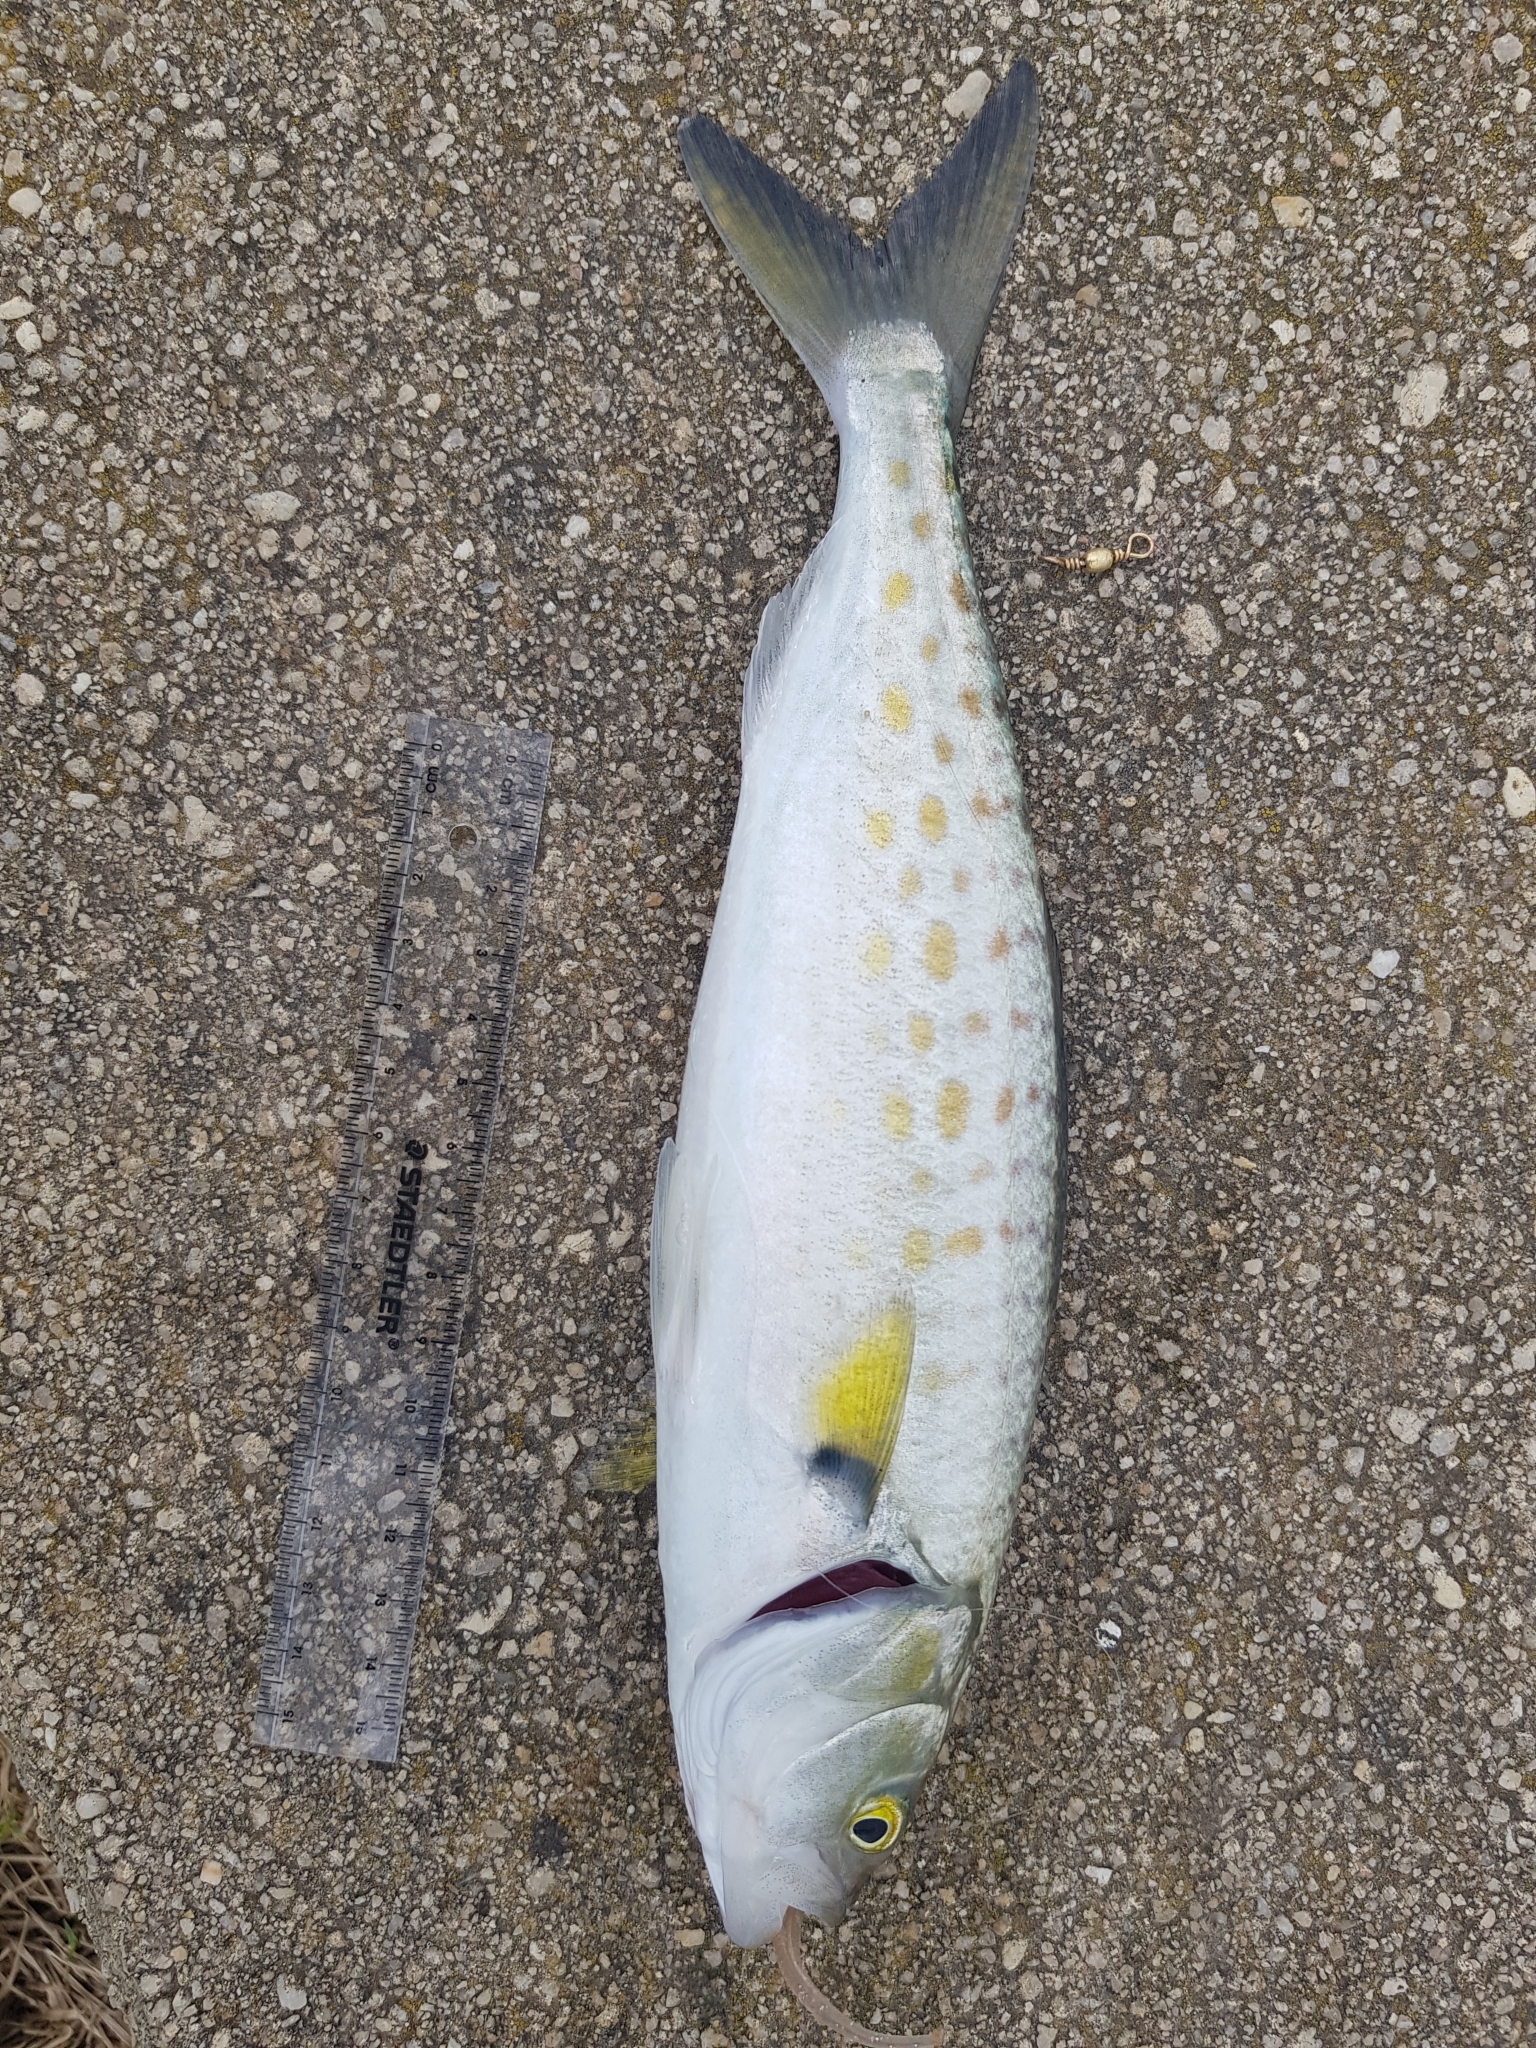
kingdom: Animalia
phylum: Chordata
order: Perciformes
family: Arripidae
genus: Arripis
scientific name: Arripis trutta
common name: Kahawai
